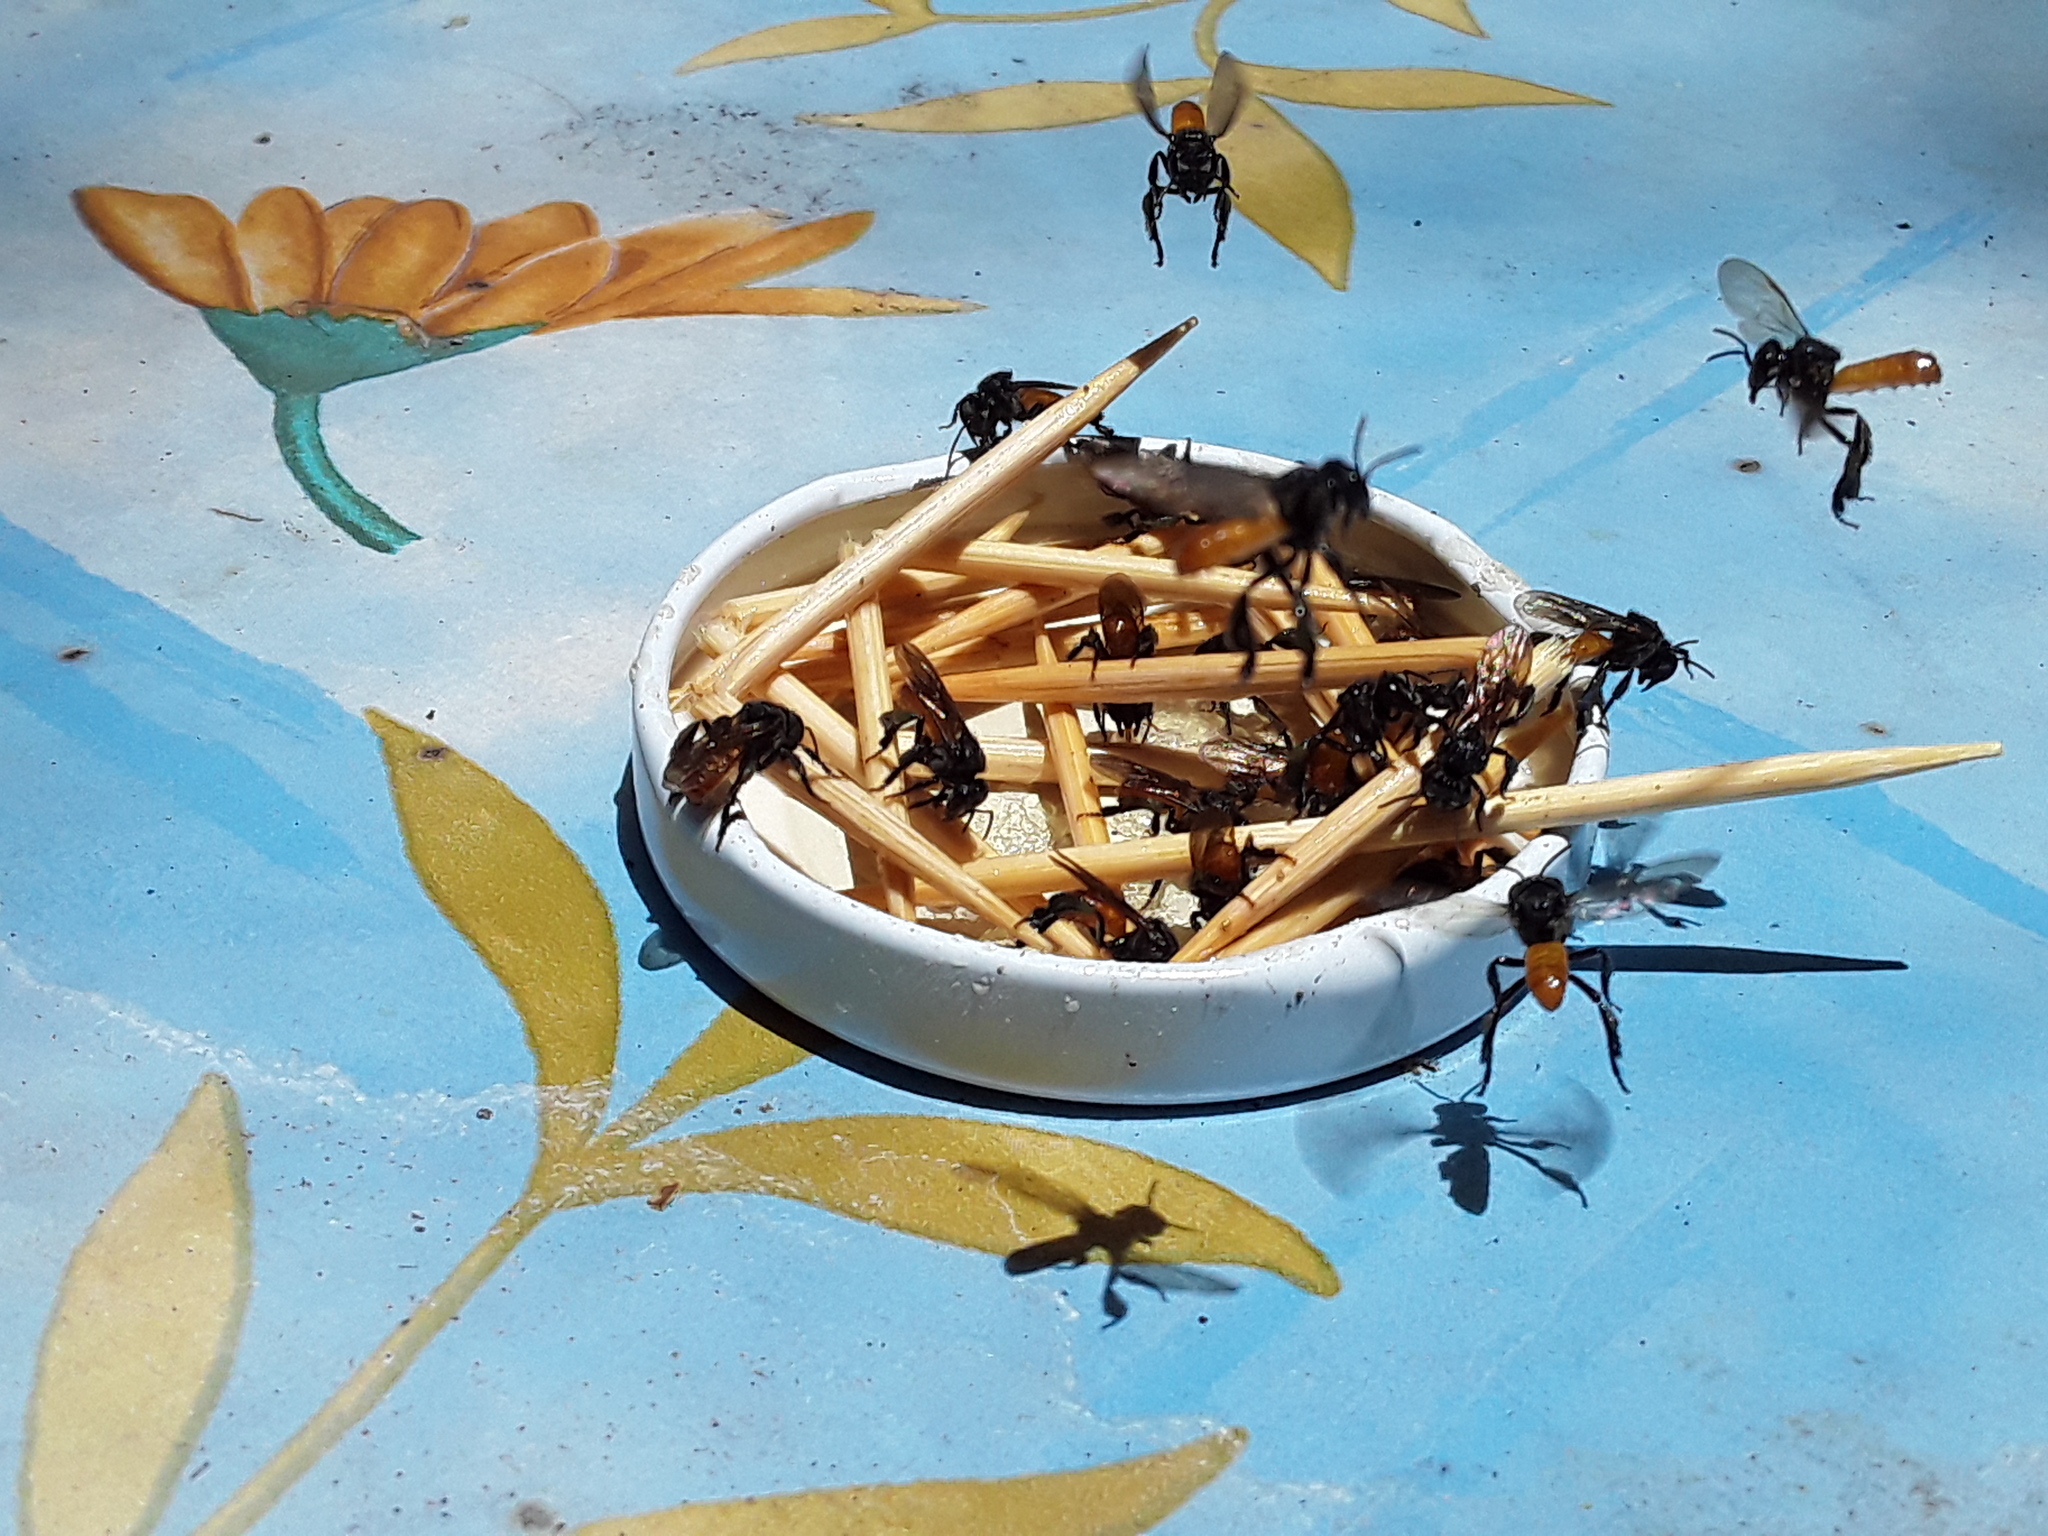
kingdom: Animalia
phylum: Arthropoda
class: Insecta
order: Hymenoptera
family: Apidae
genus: Trigona
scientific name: Trigona fulviventris
